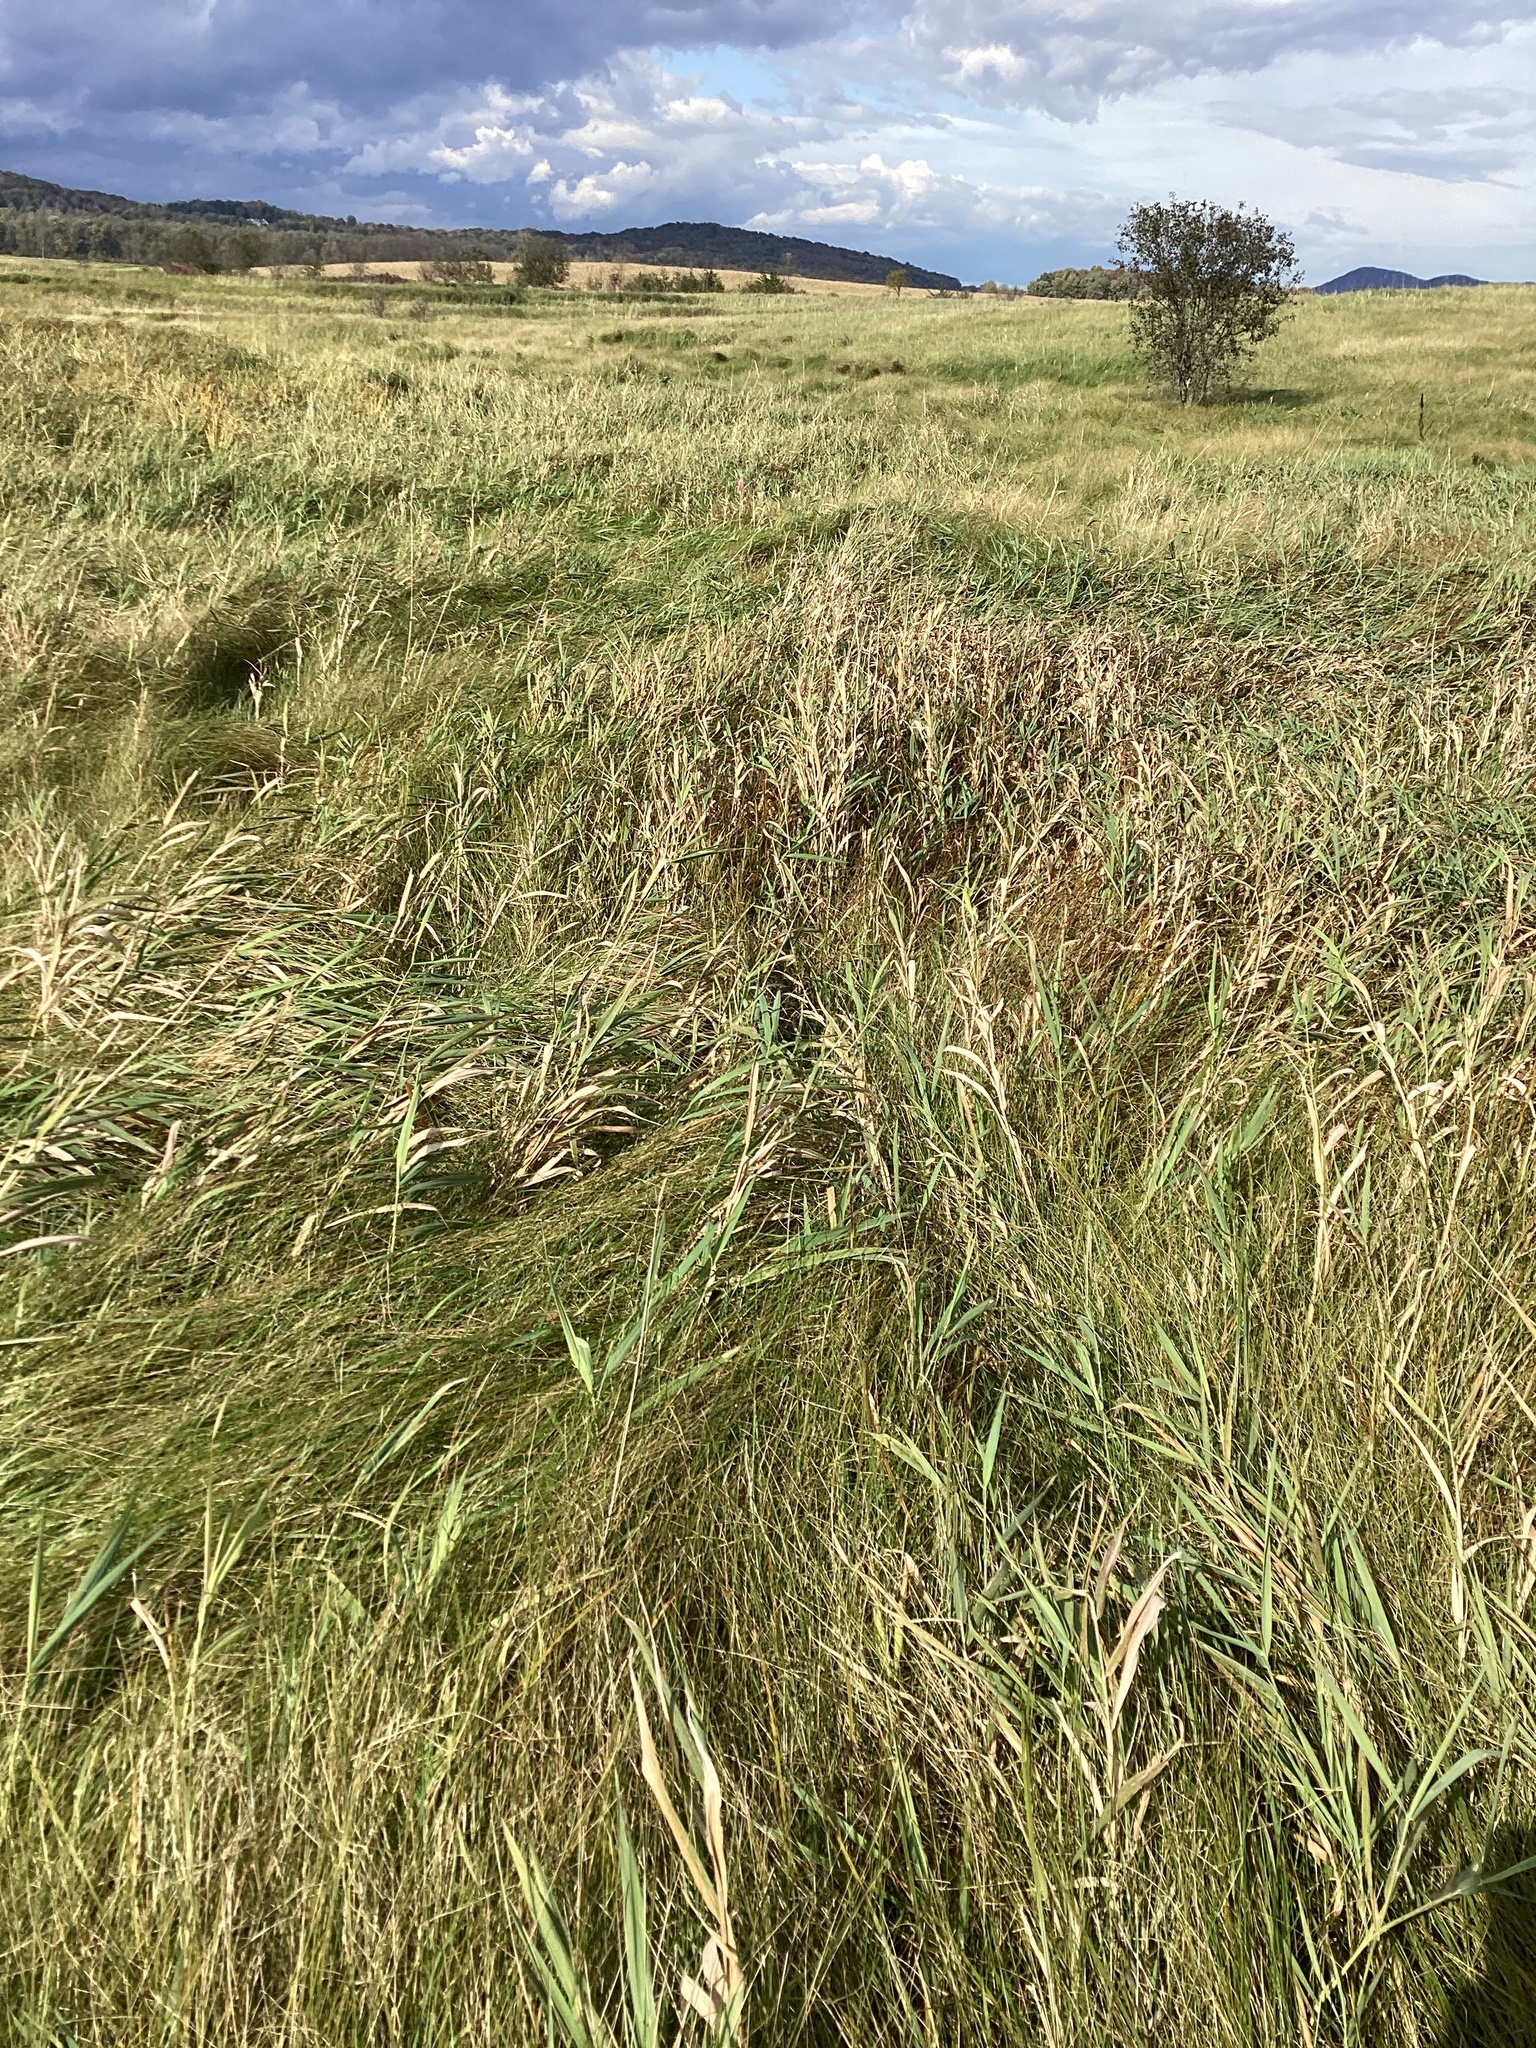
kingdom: Plantae
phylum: Tracheophyta
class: Liliopsida
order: Poales
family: Poaceae
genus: Phalaris
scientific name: Phalaris arundinacea
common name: Reed canary-grass
